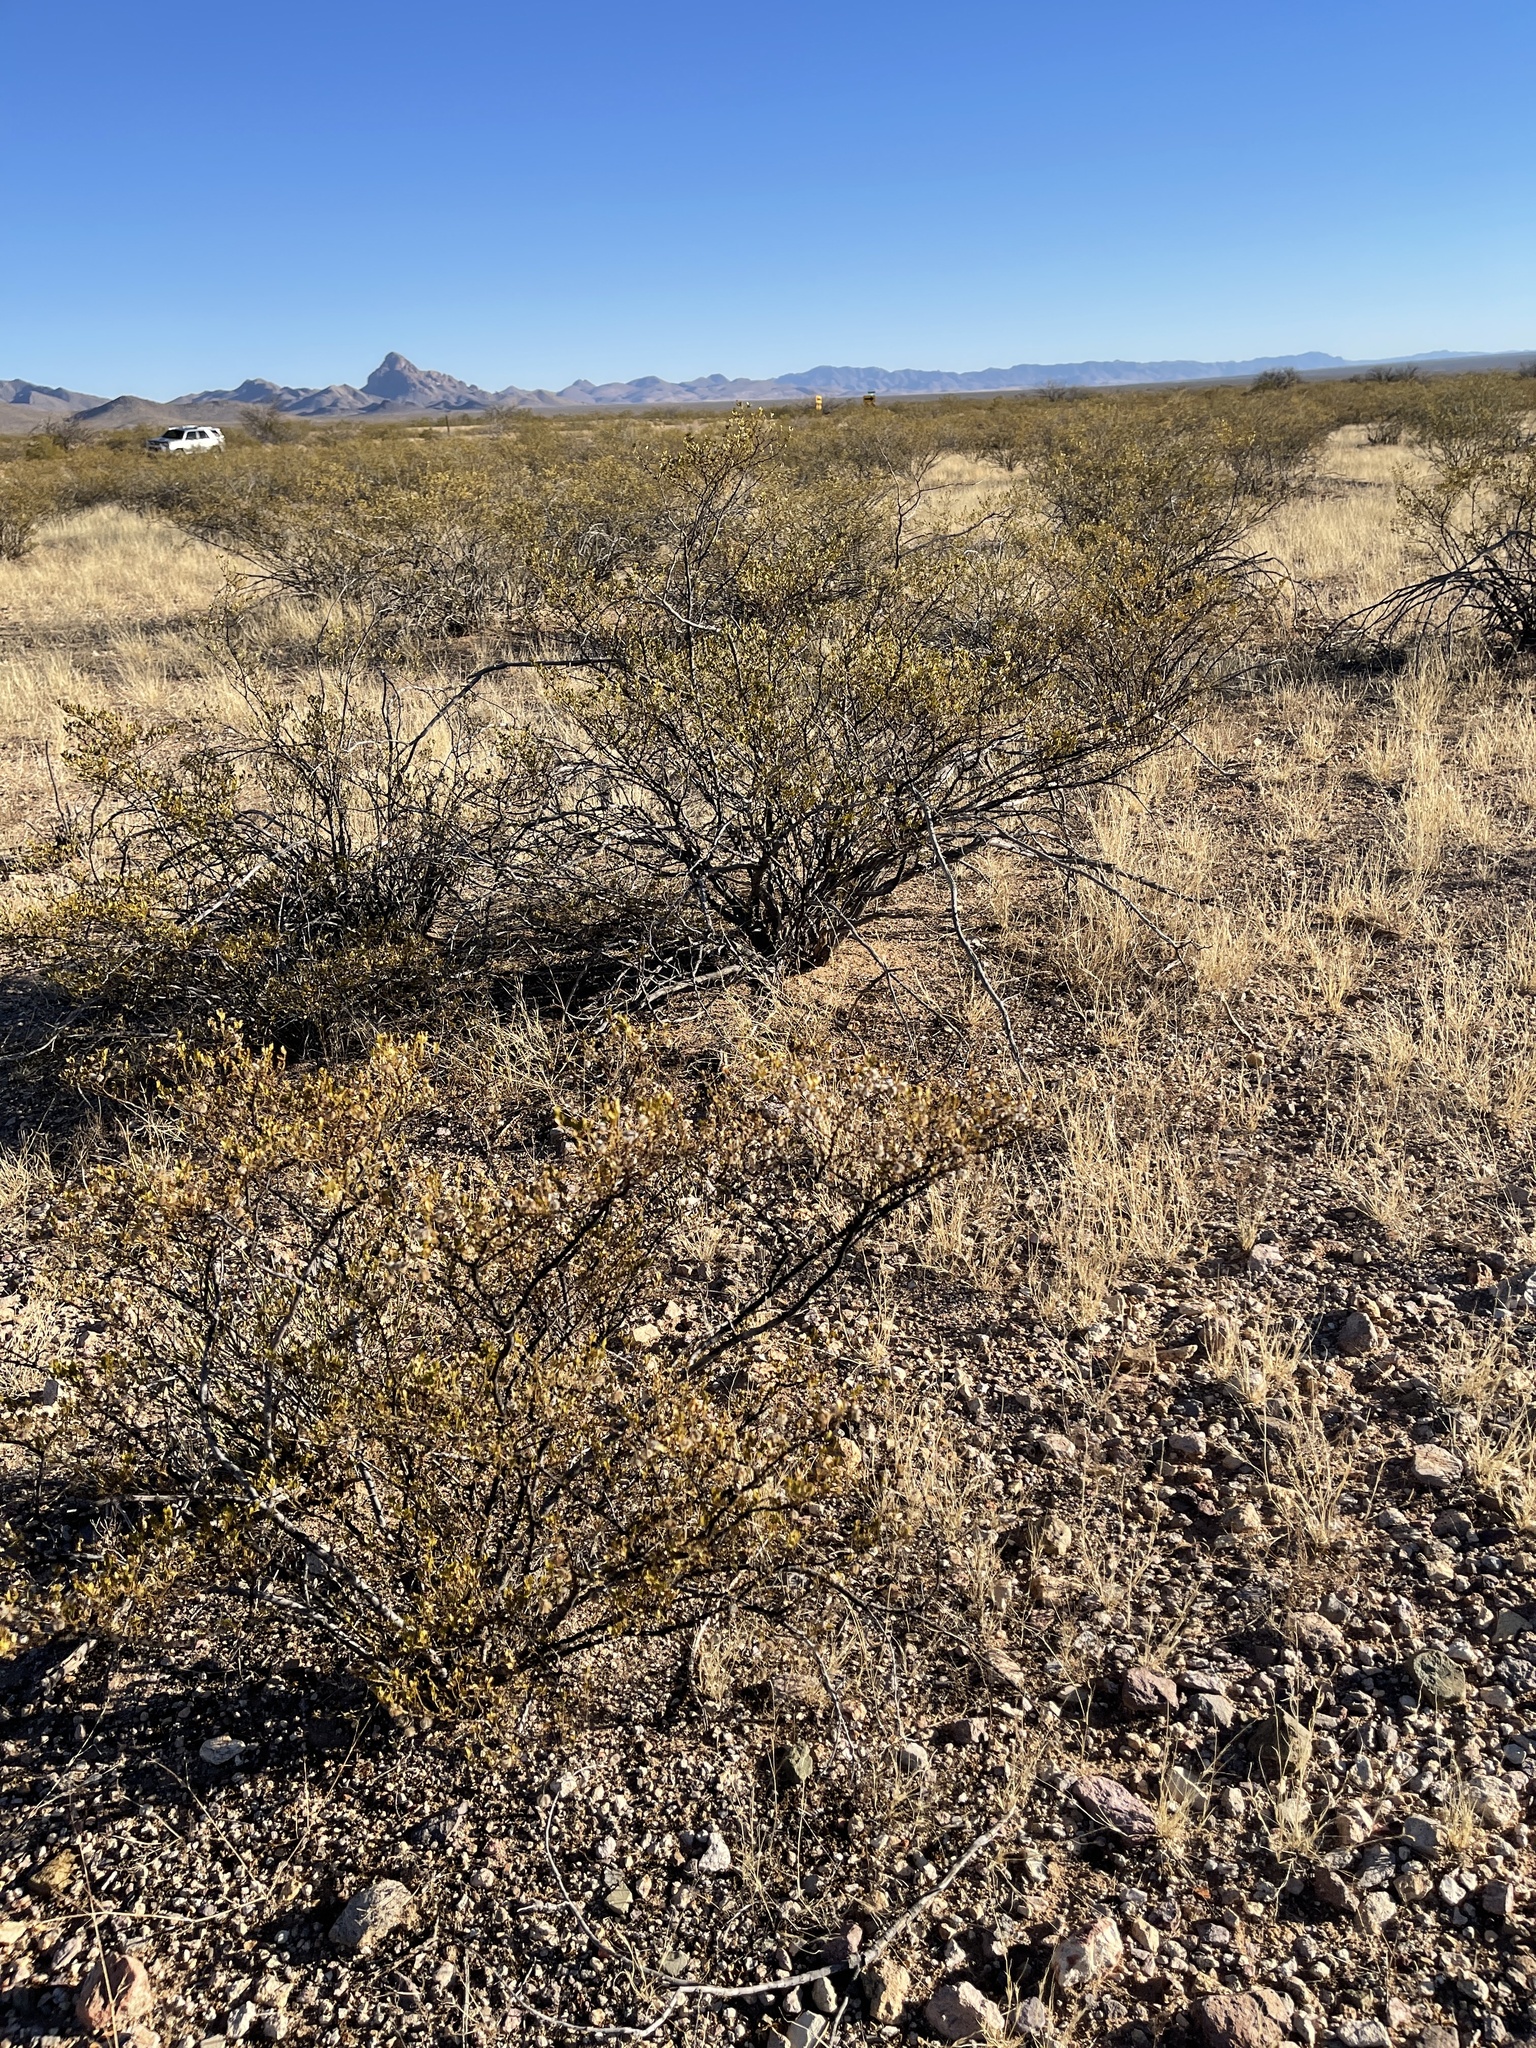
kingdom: Plantae
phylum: Tracheophyta
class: Magnoliopsida
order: Zygophyllales
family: Zygophyllaceae
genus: Larrea
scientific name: Larrea tridentata
